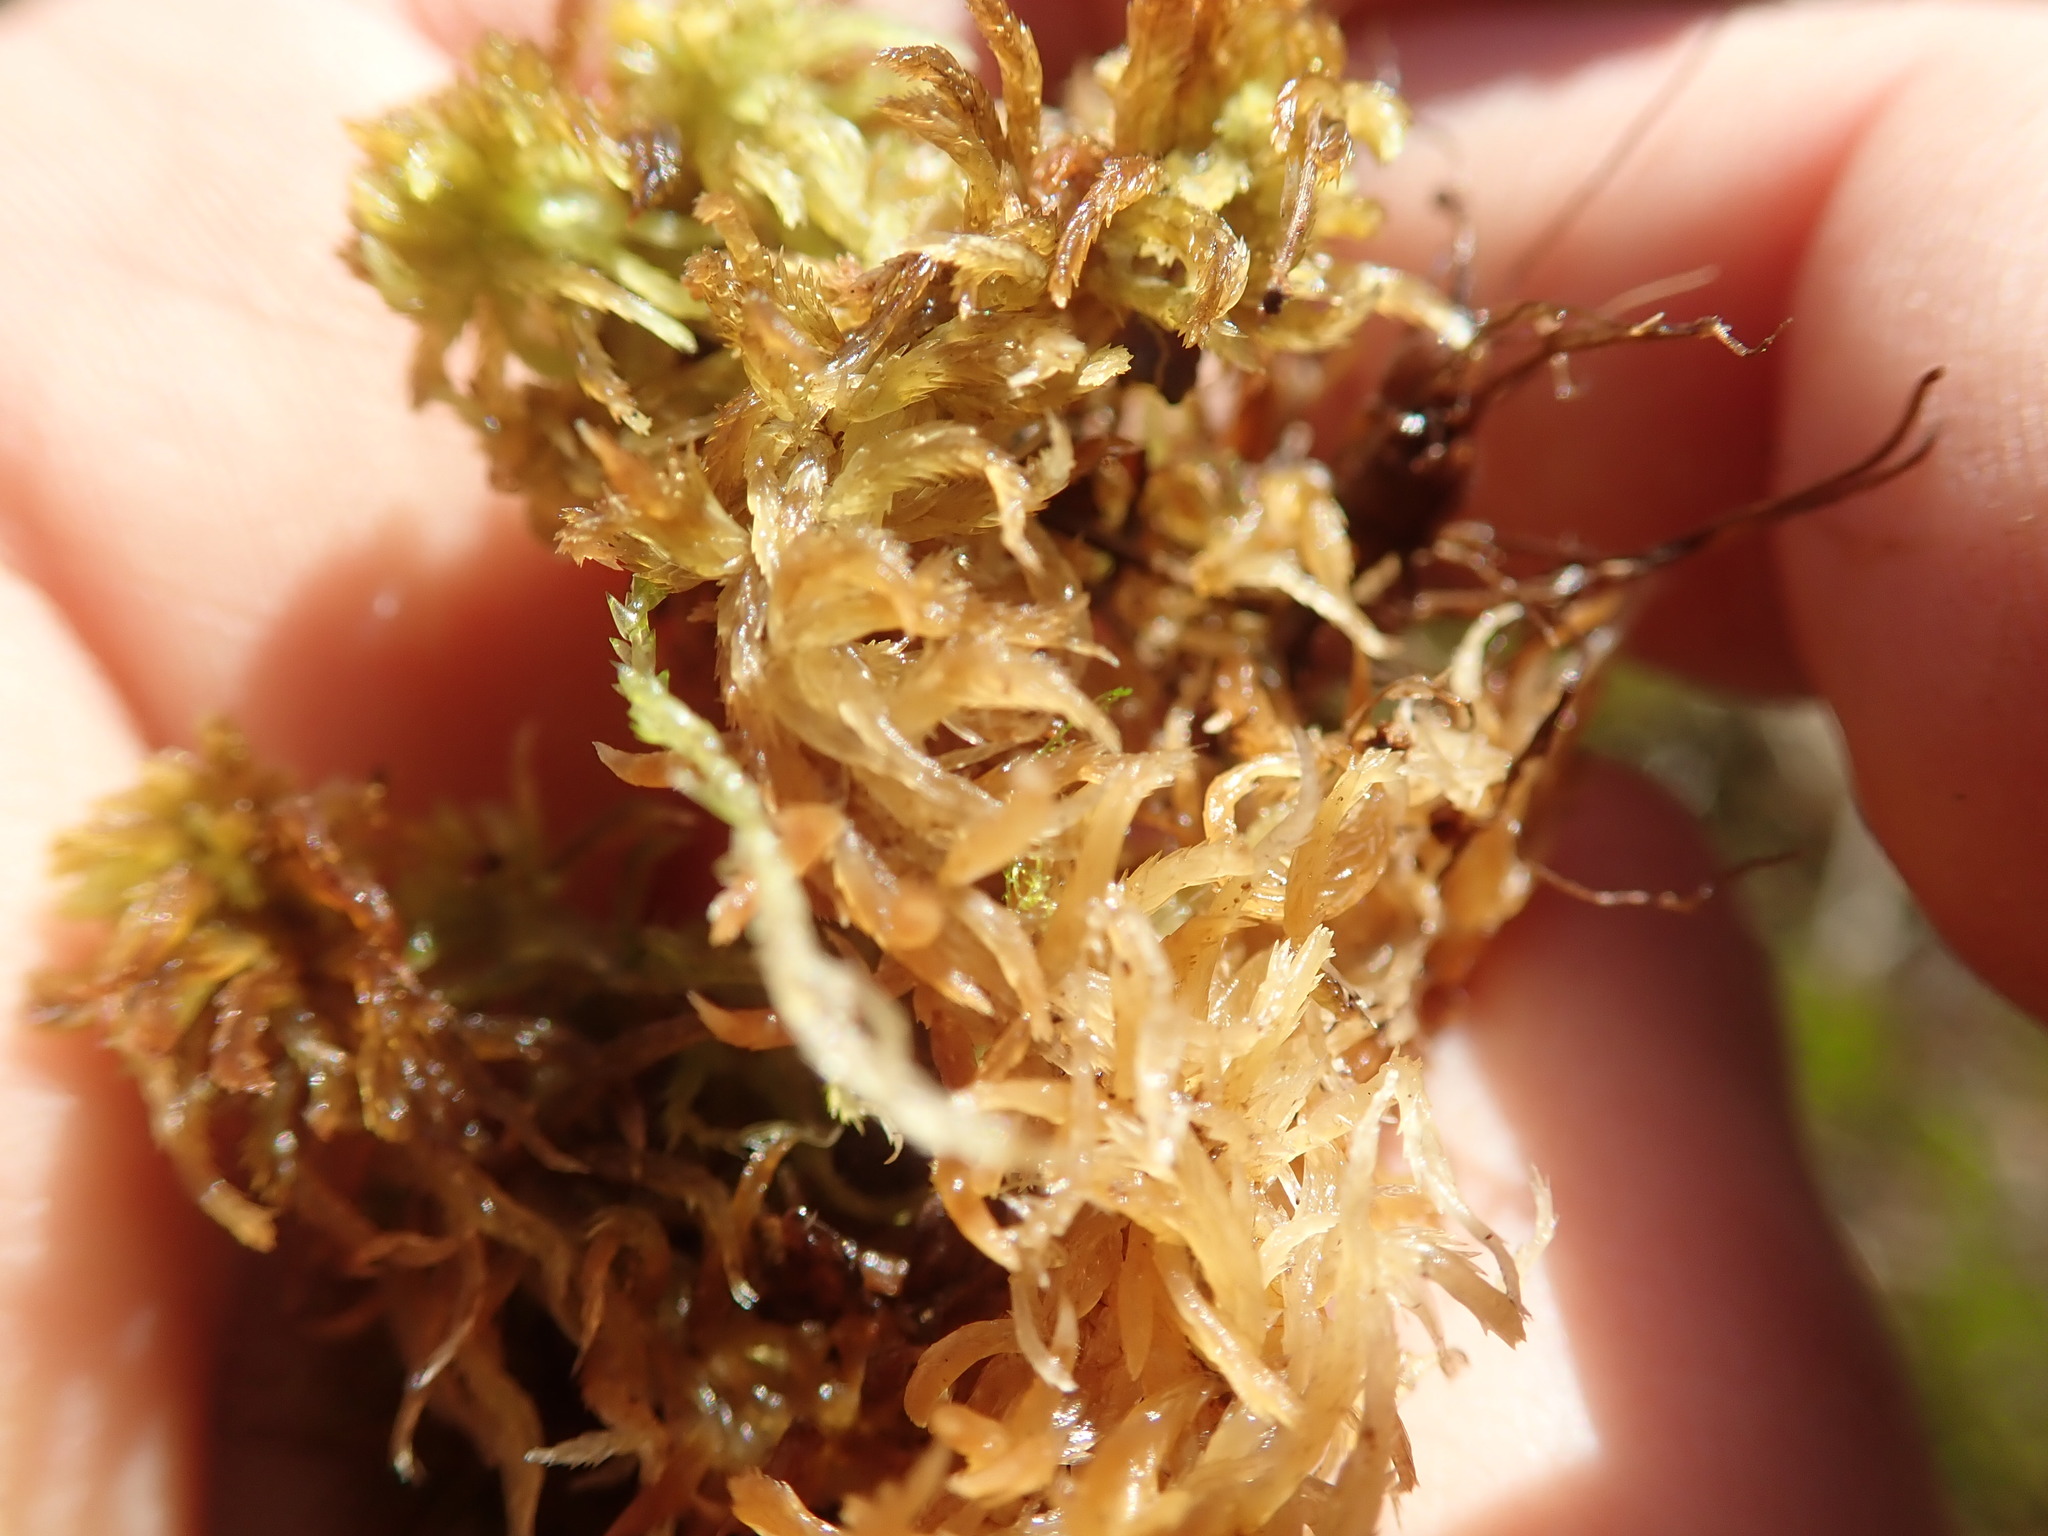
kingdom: Plantae
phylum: Bryophyta
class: Sphagnopsida
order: Sphagnales
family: Sphagnaceae
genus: Sphagnum
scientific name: Sphagnum mendocinum
